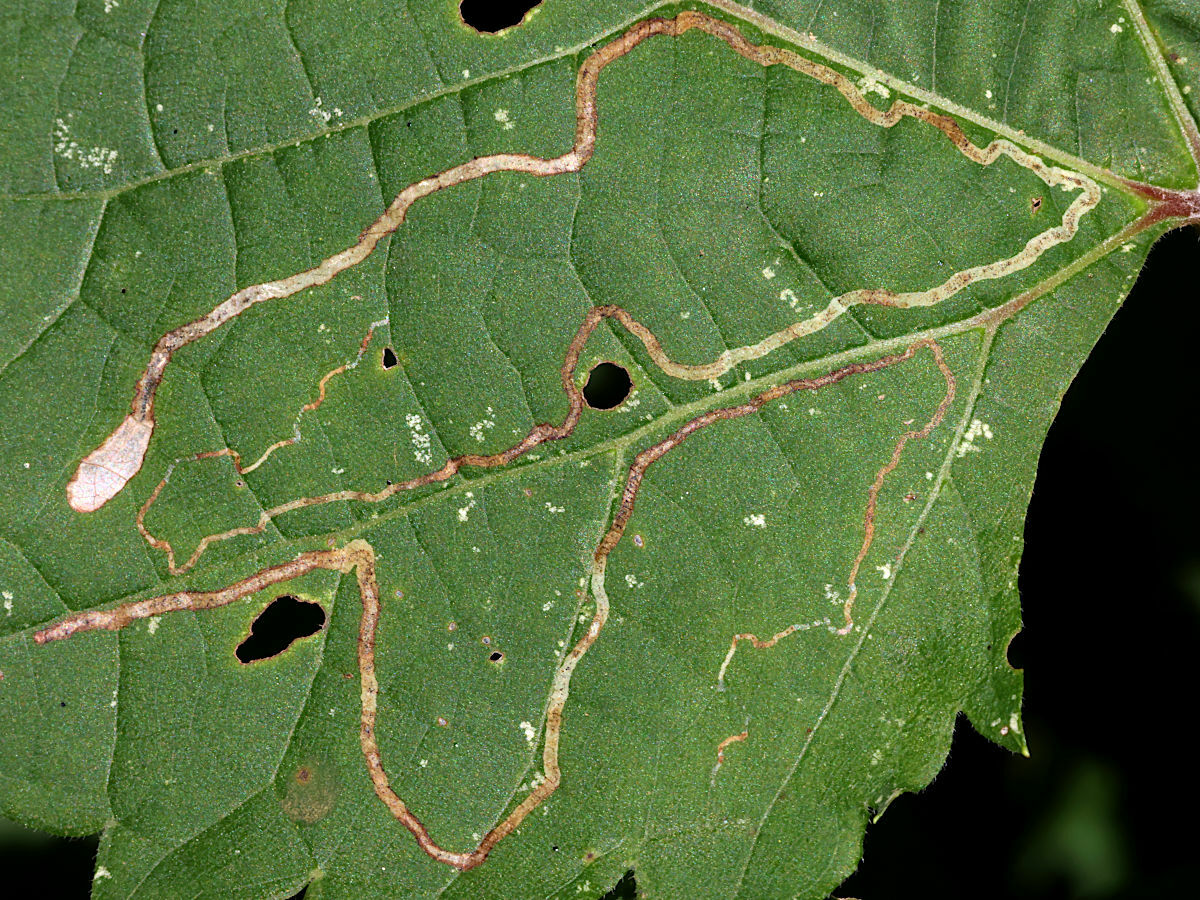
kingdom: Animalia
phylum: Arthropoda
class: Insecta
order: Lepidoptera
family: Gracillariidae
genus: Phyllocnistis
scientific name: Phyllocnistis vitifoliella
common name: Grape leaf-miner moth
